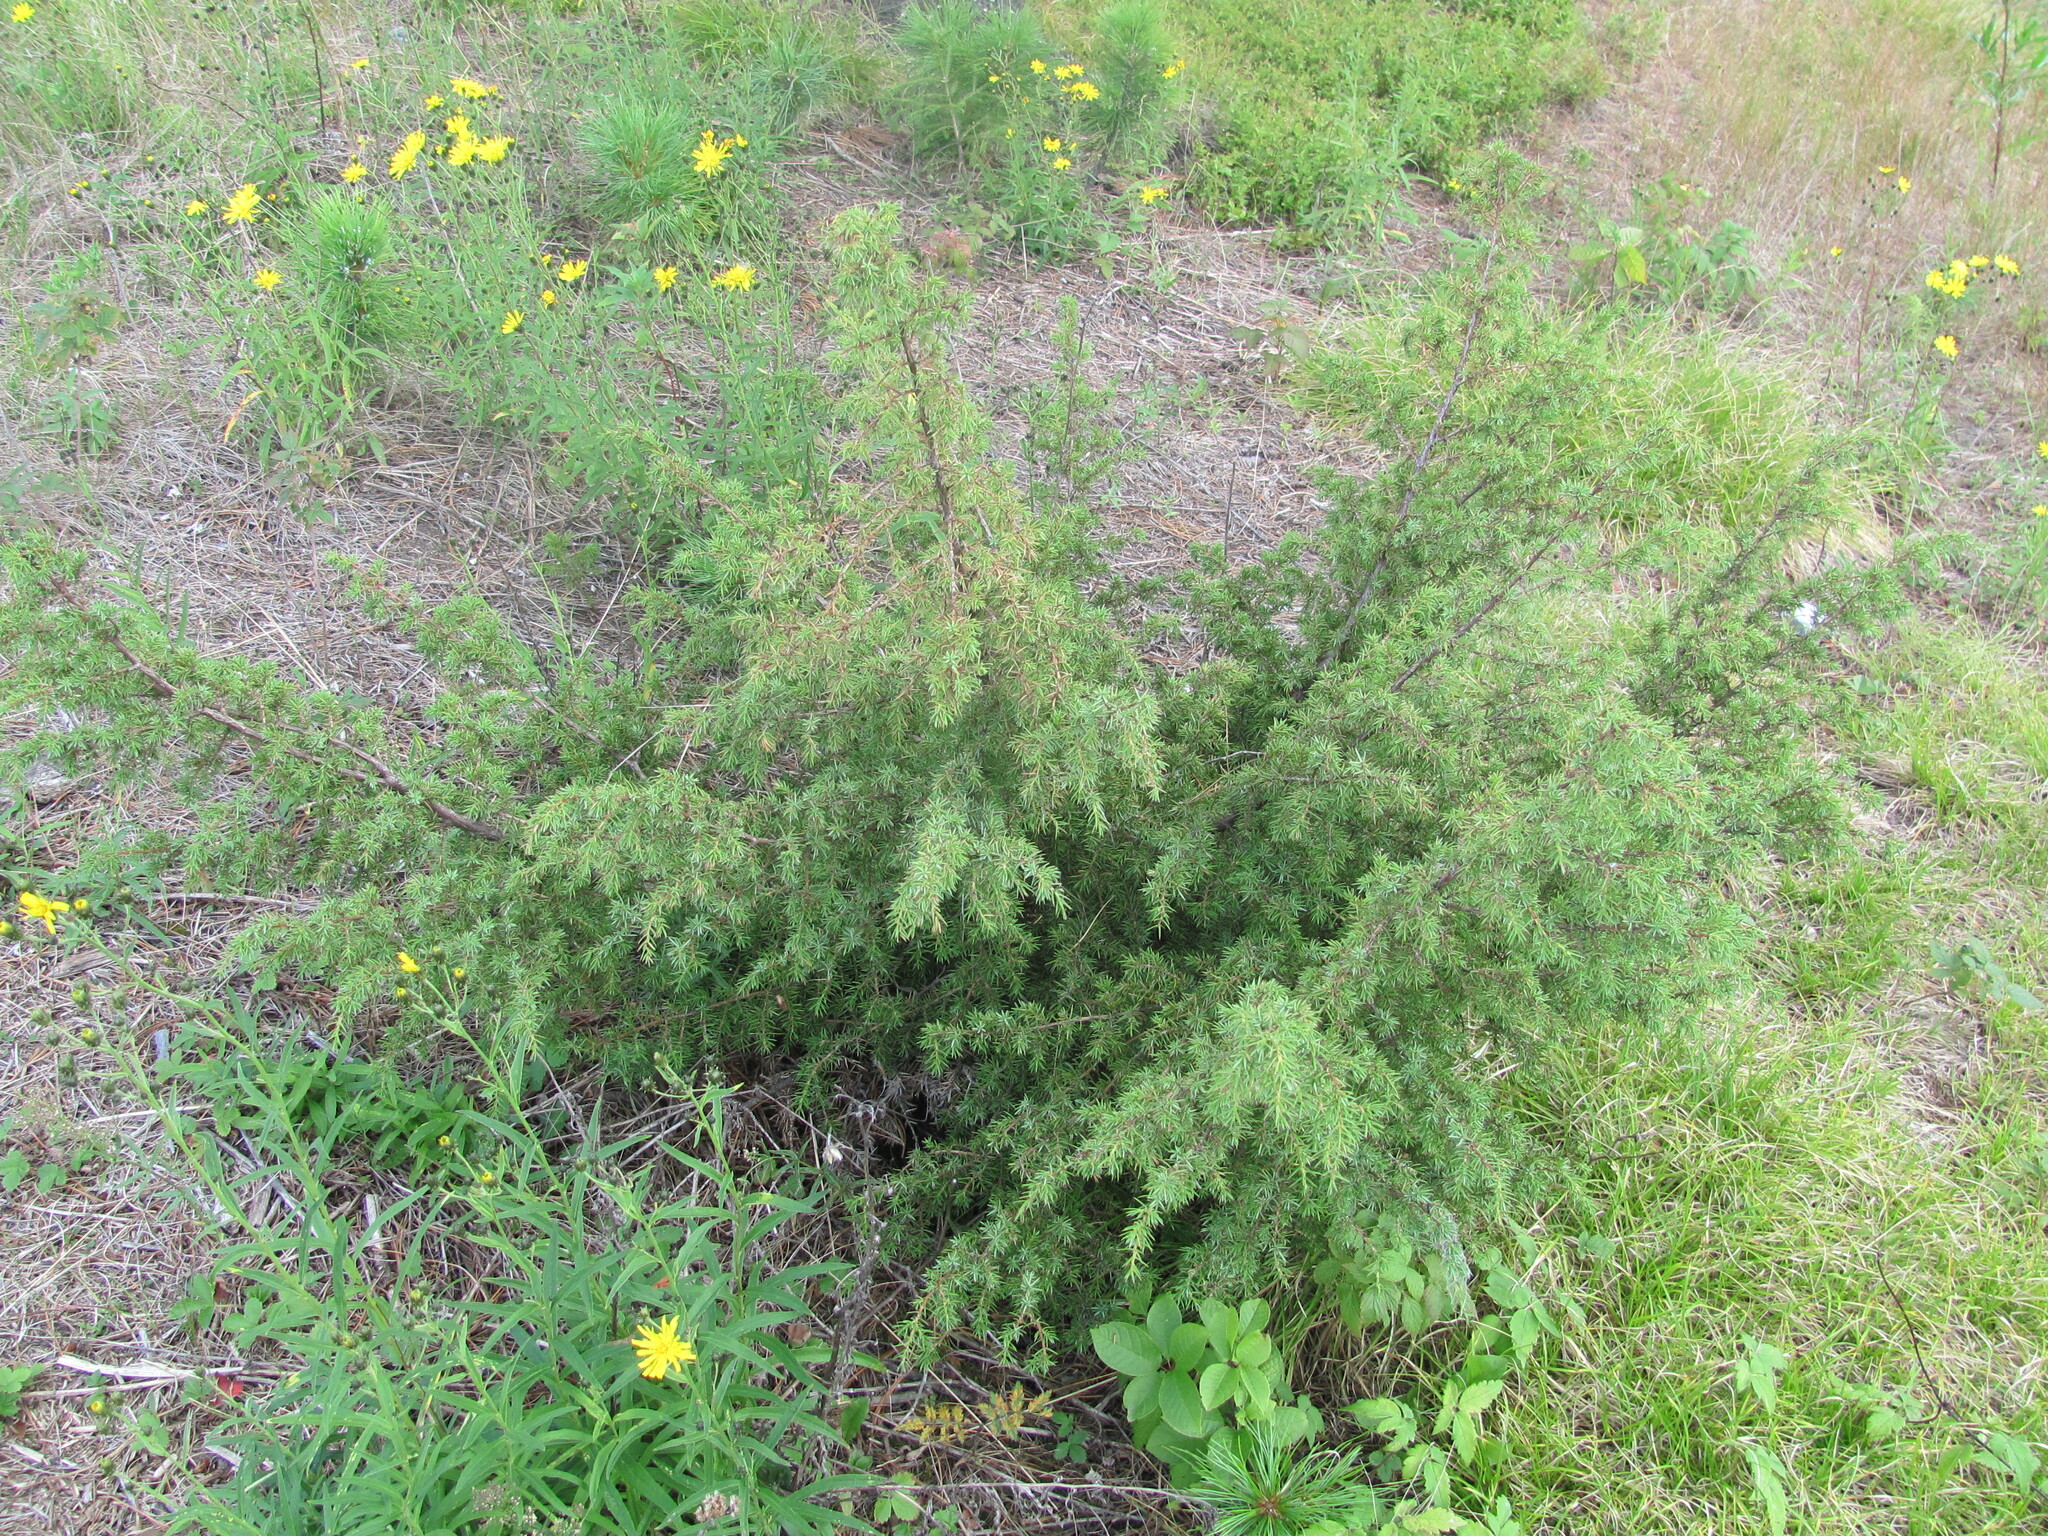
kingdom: Plantae
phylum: Tracheophyta
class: Pinopsida
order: Pinales
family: Cupressaceae
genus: Juniperus
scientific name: Juniperus communis
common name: Common juniper
